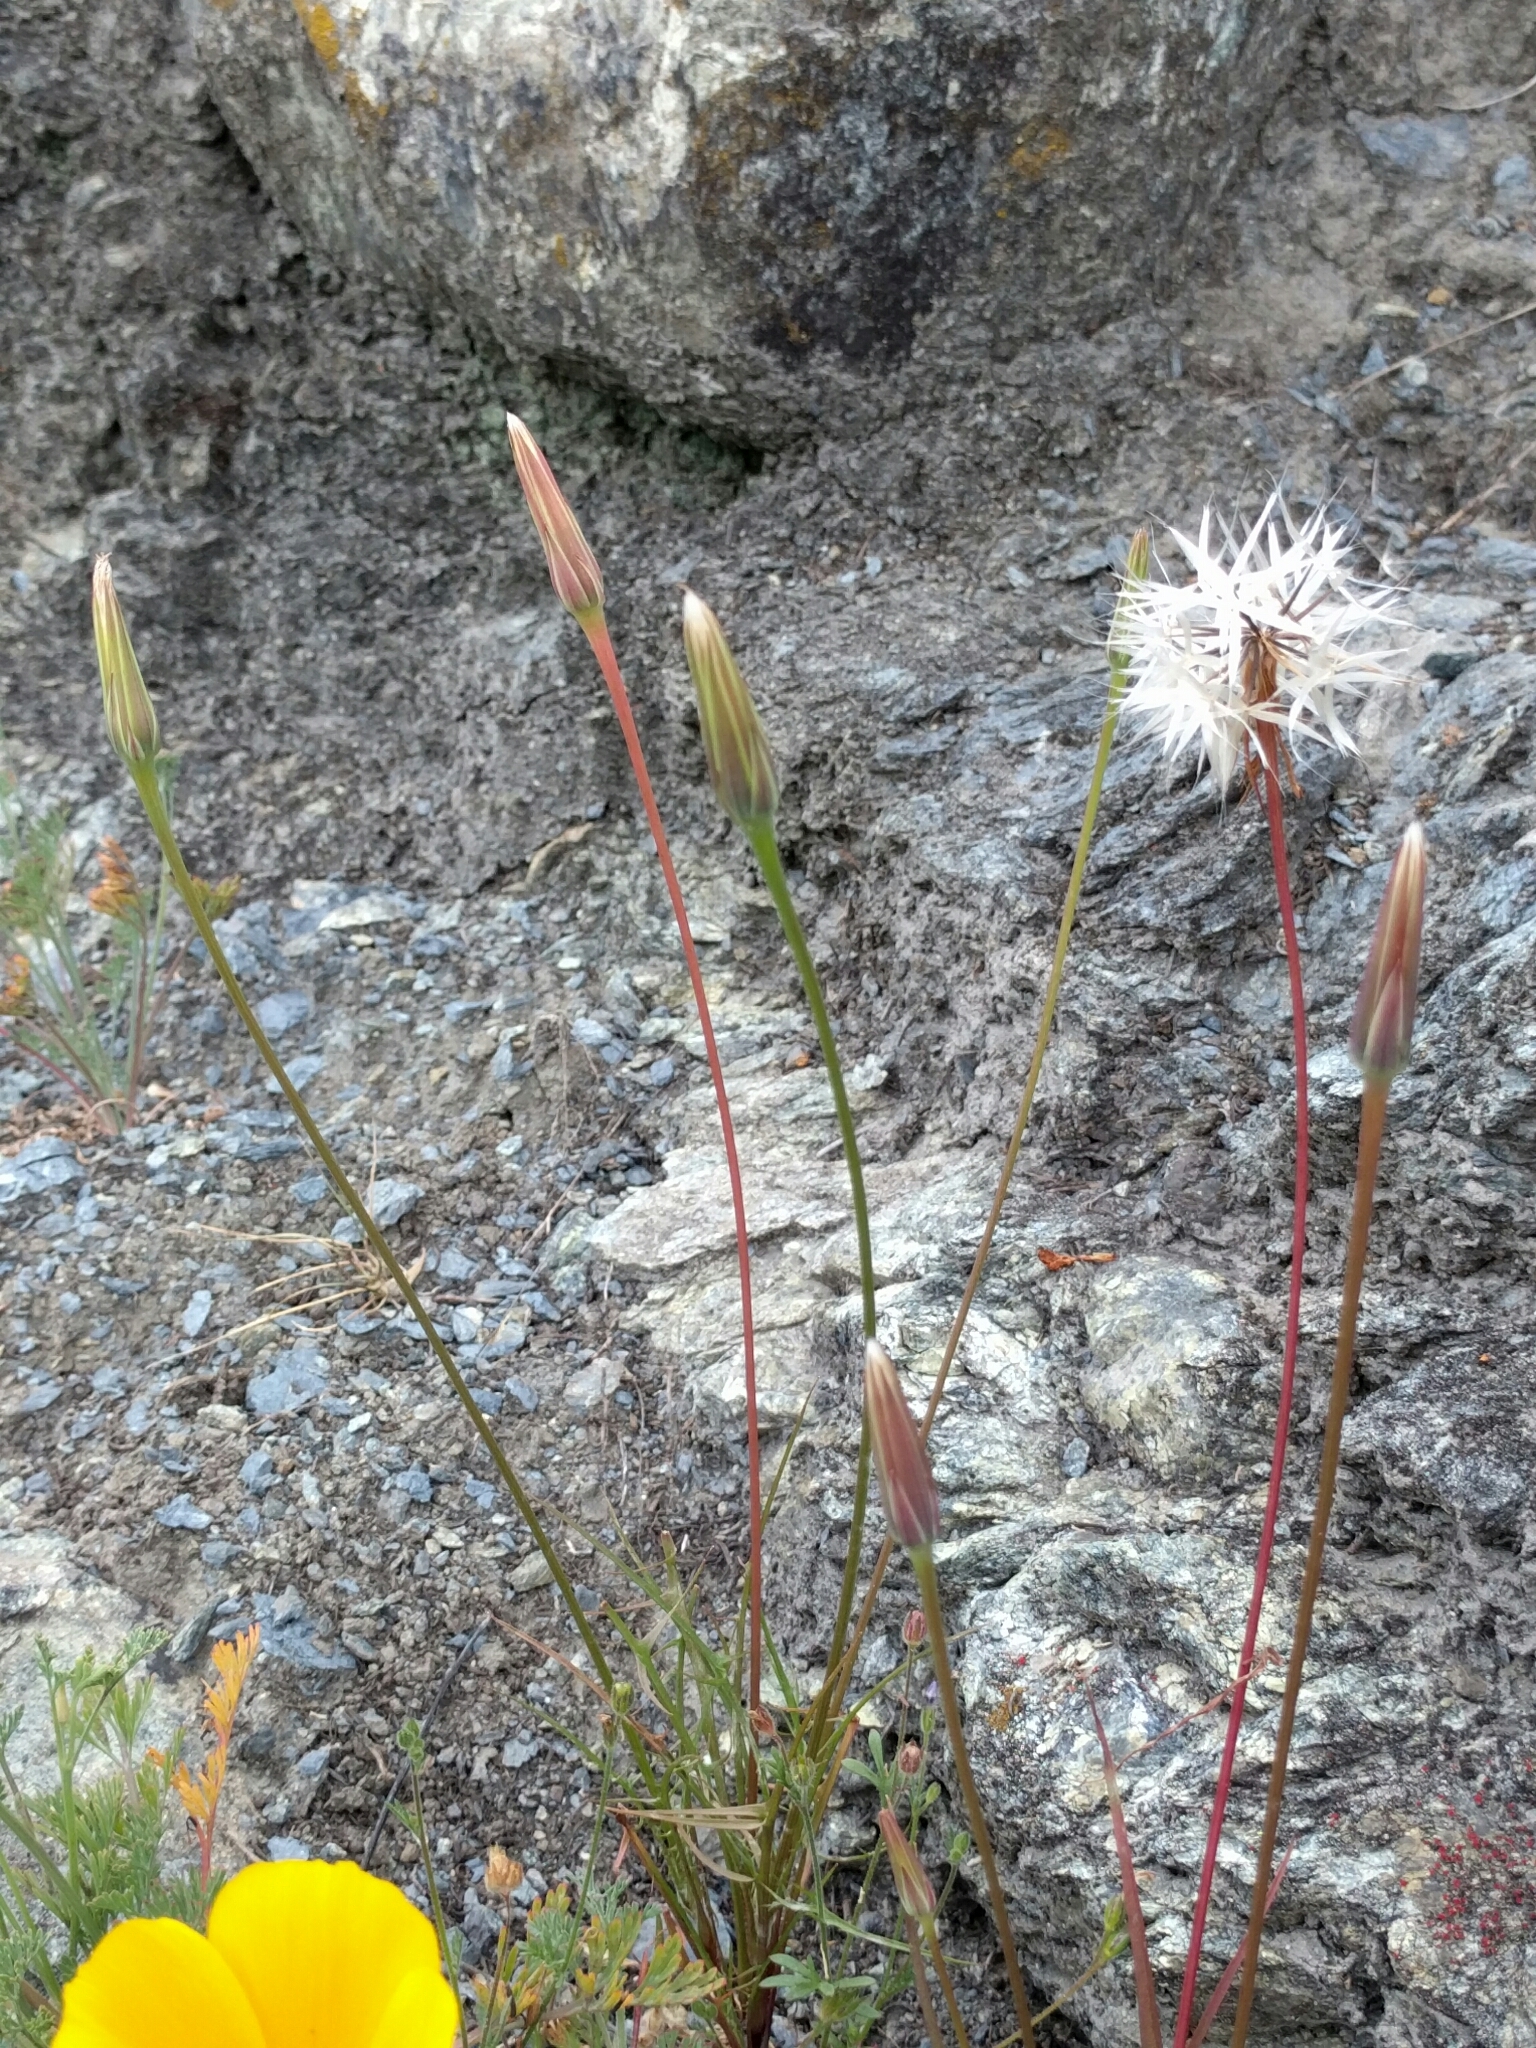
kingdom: Plantae
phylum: Tracheophyta
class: Magnoliopsida
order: Asterales
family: Asteraceae
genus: Microseris
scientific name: Microseris lindleyi
